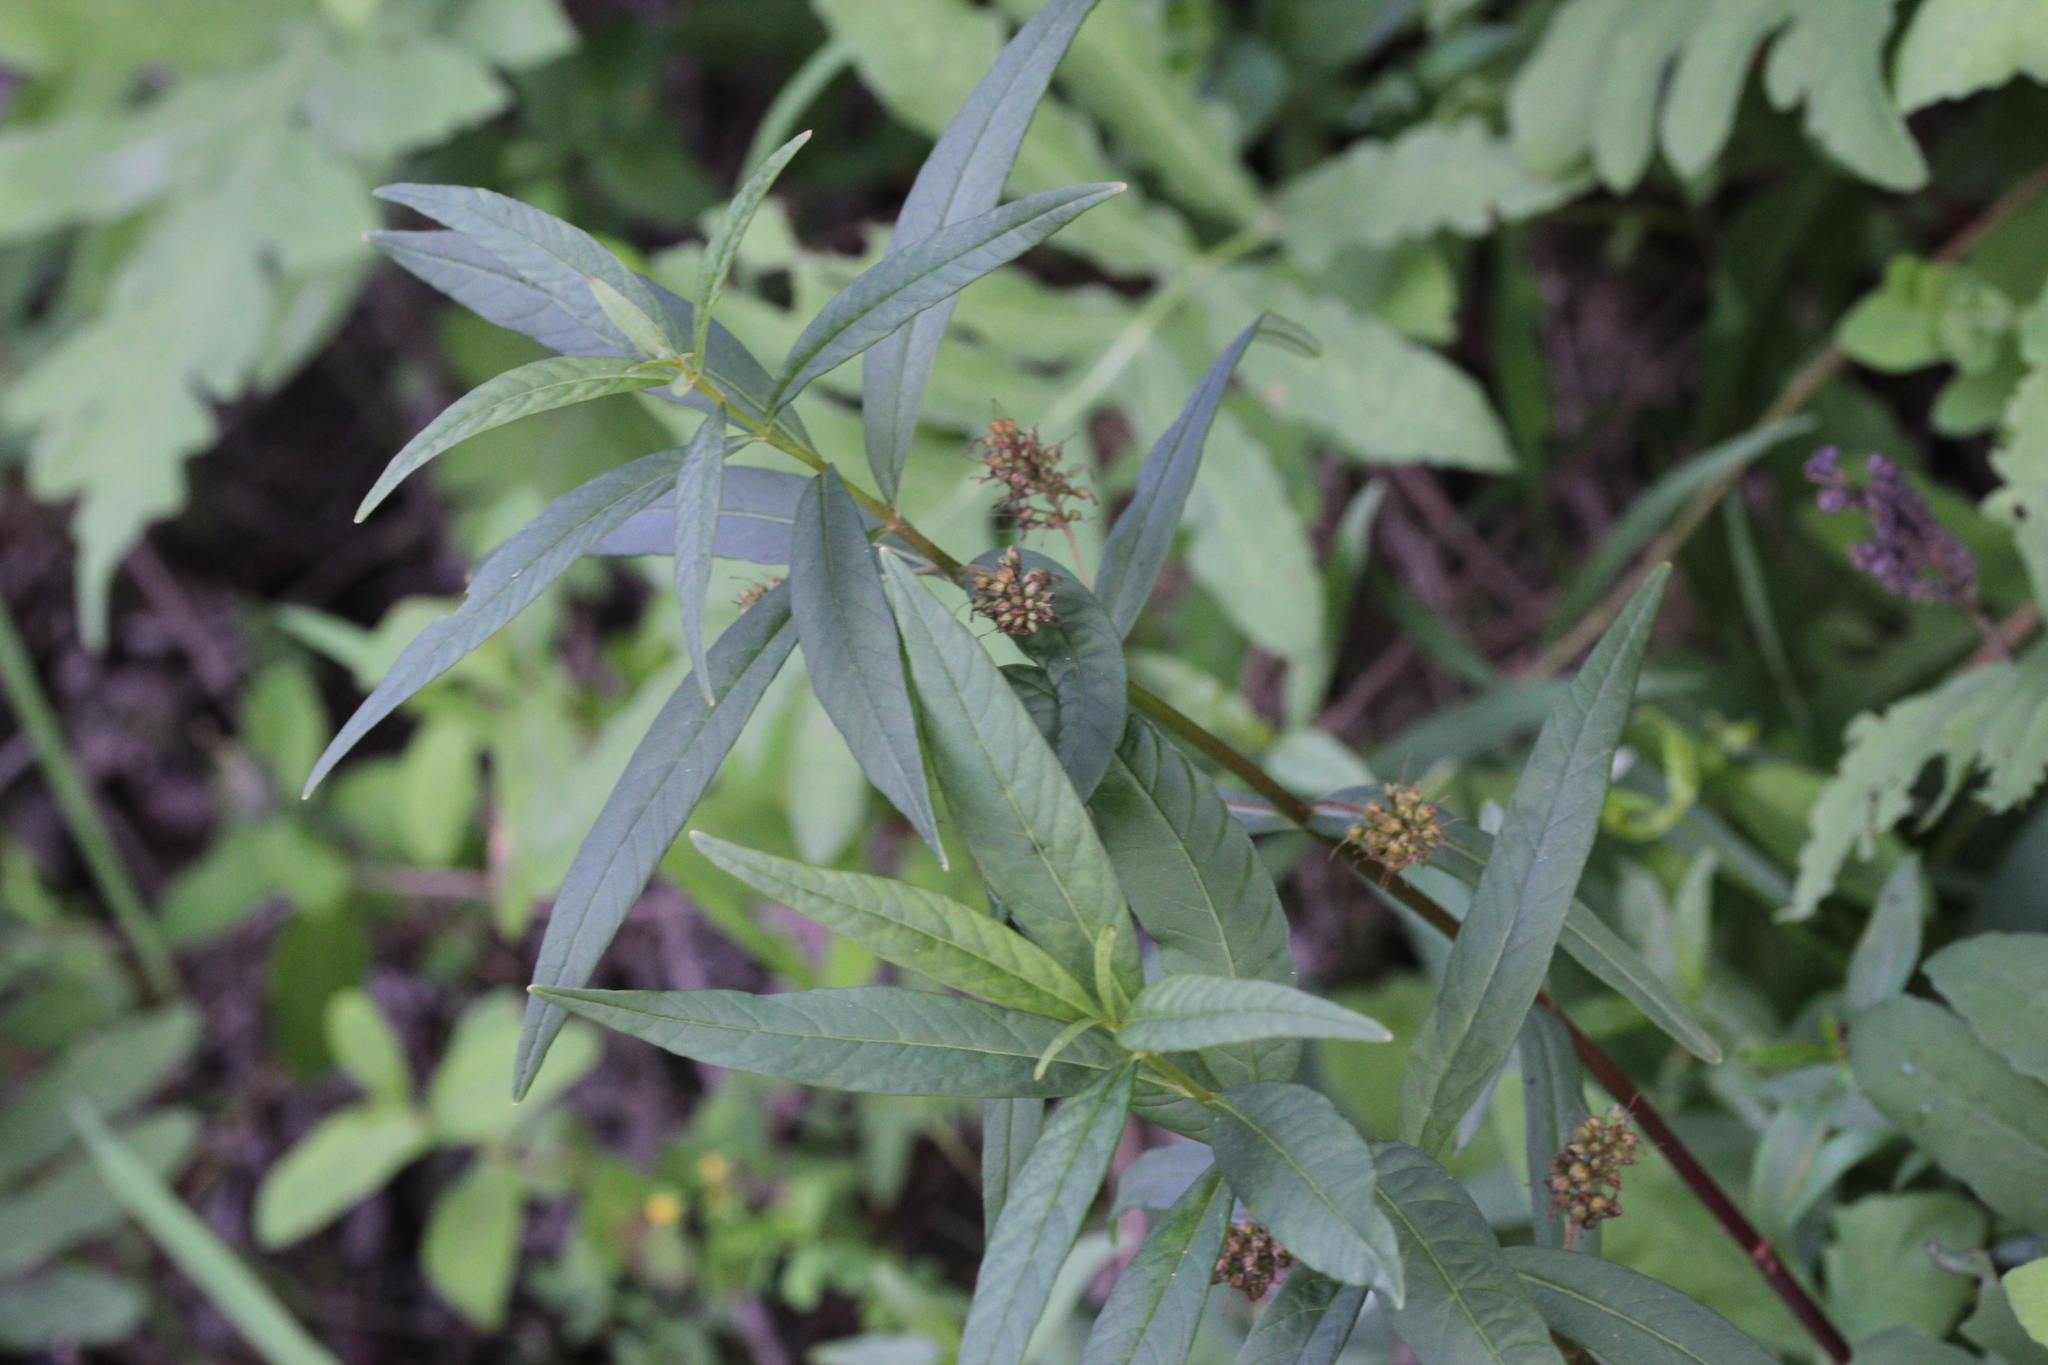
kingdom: Plantae
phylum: Tracheophyta
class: Magnoliopsida
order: Ericales
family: Primulaceae
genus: Lysimachia
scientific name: Lysimachia thyrsiflora
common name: Tufted loosestrife
